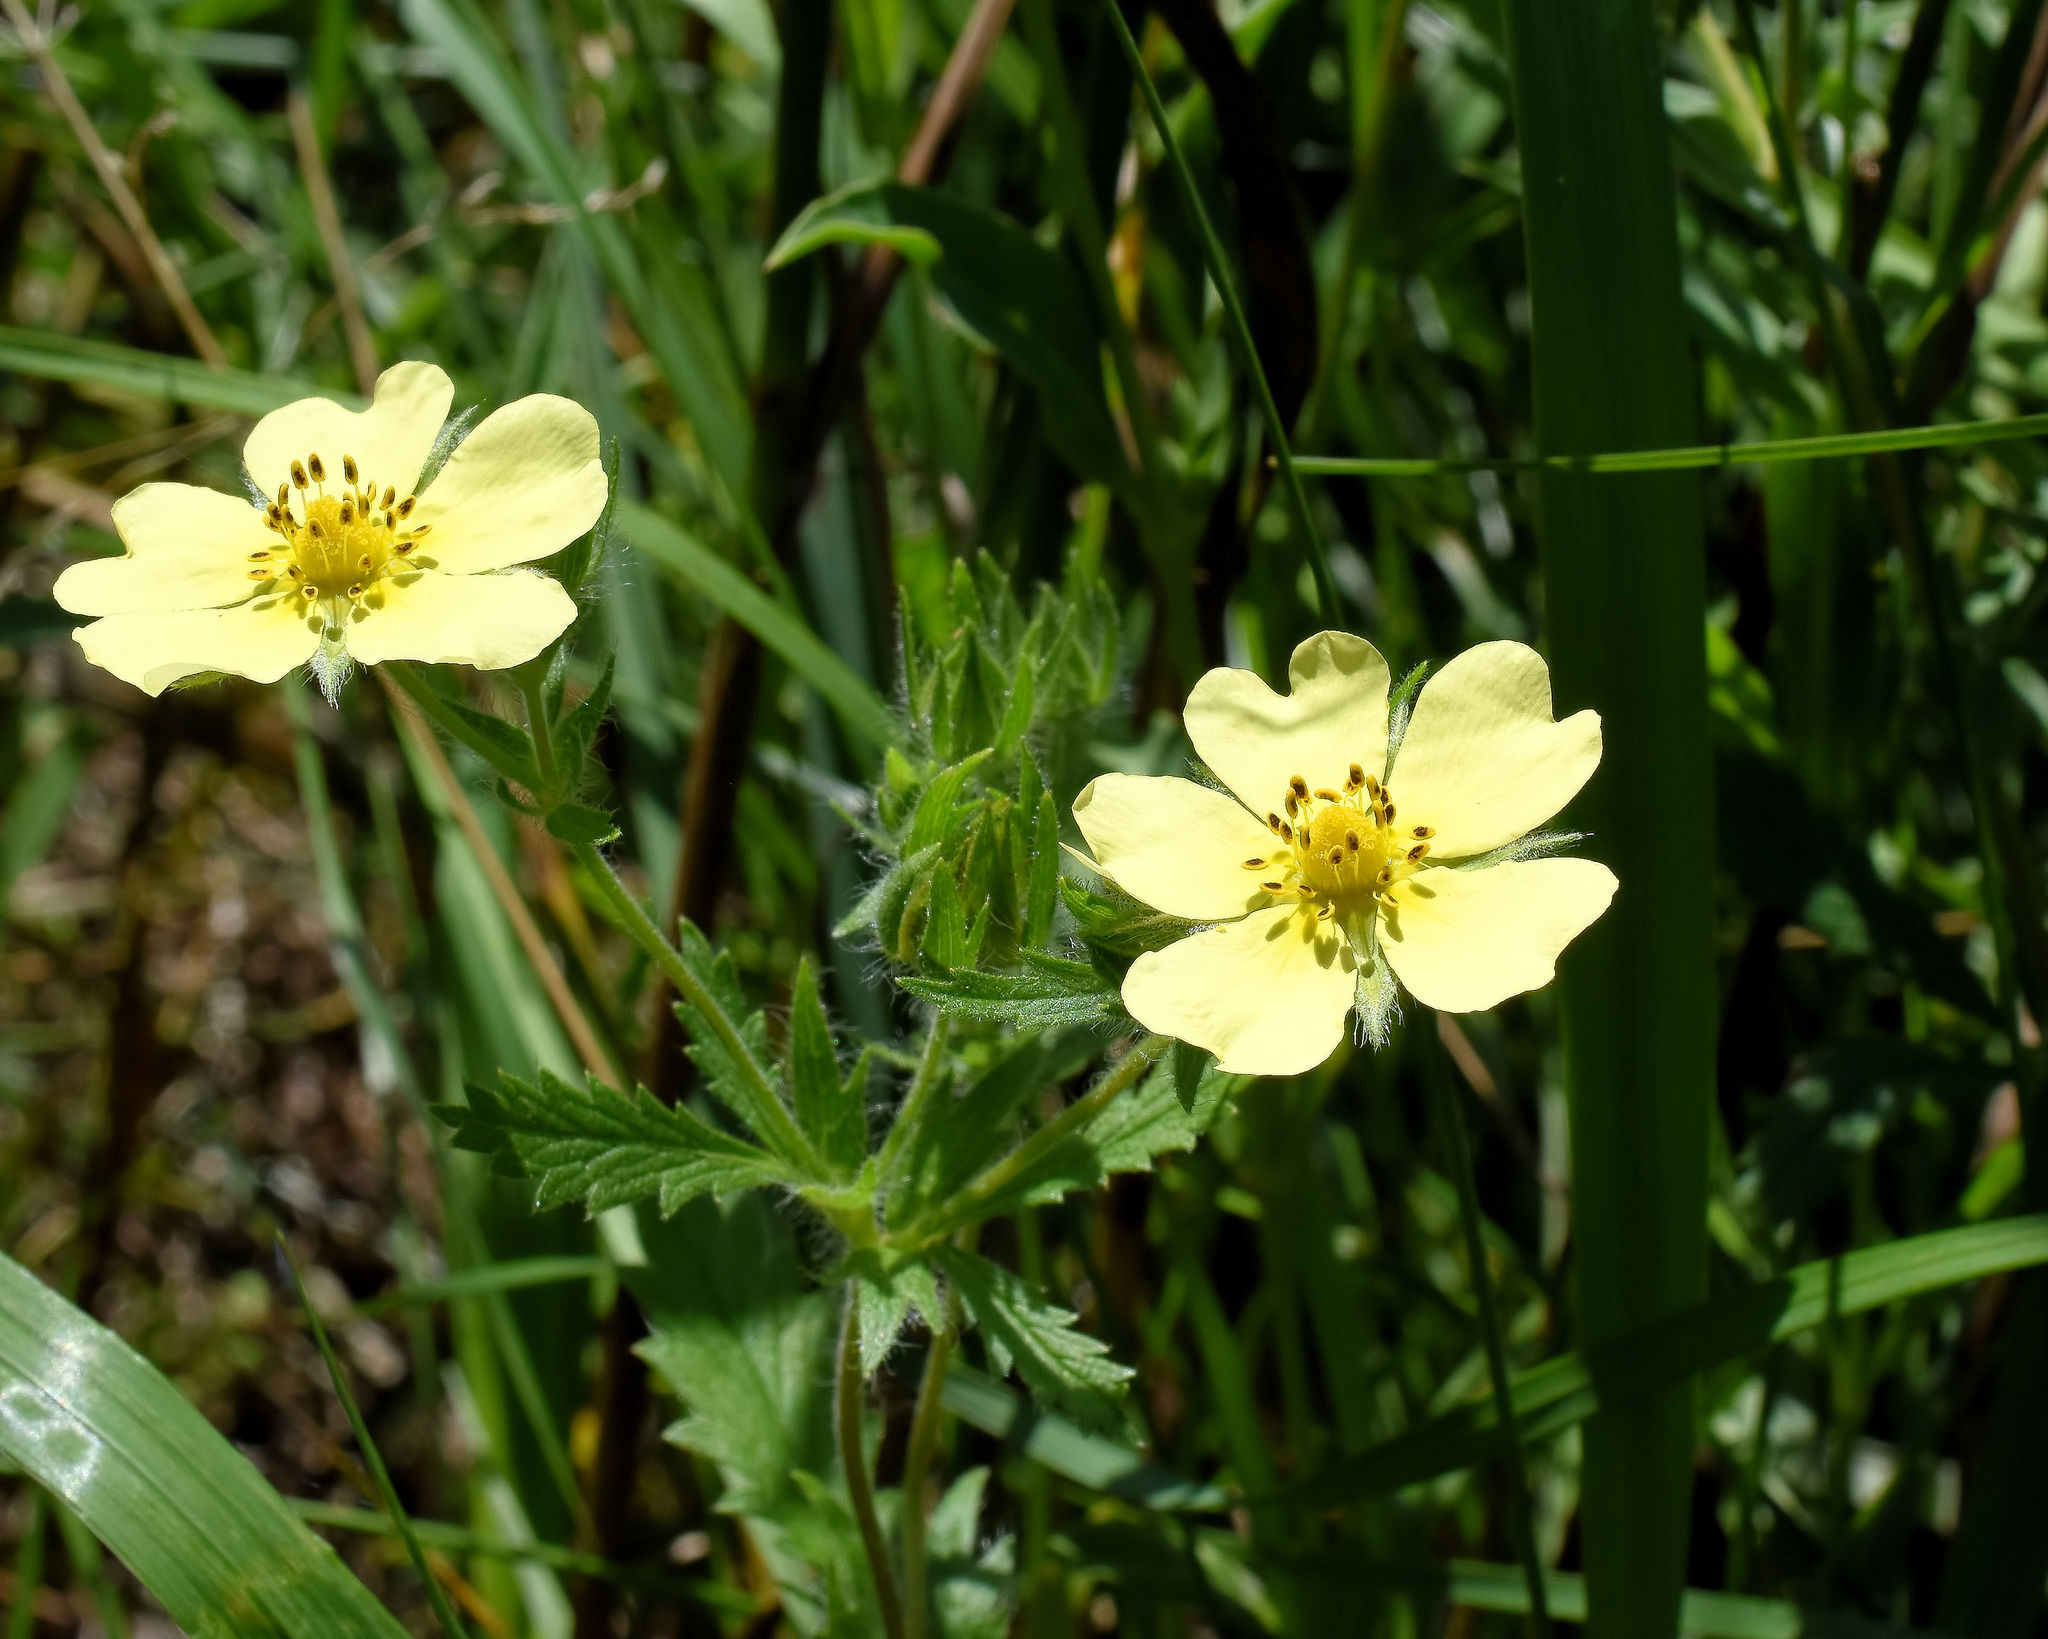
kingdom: Plantae
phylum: Tracheophyta
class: Magnoliopsida
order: Rosales
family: Rosaceae
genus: Potentilla
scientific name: Potentilla recta
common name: Sulphur cinquefoil
